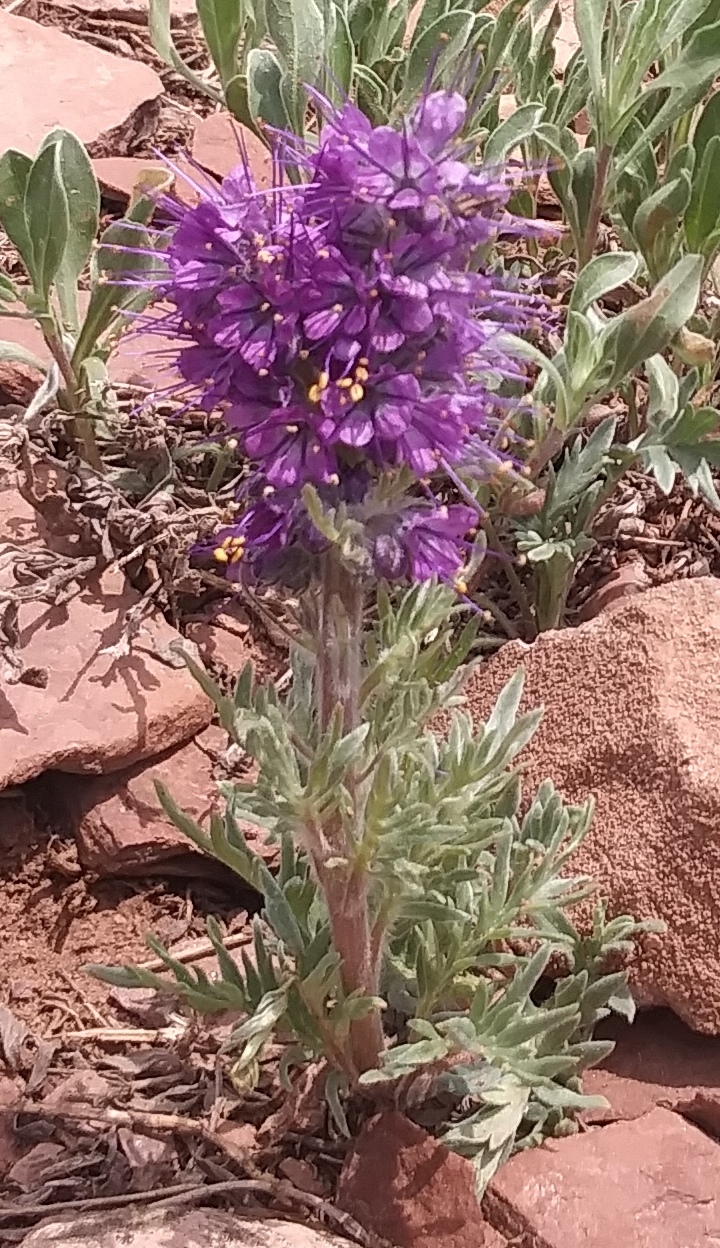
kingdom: Plantae
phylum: Tracheophyta
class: Magnoliopsida
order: Boraginales
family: Hydrophyllaceae
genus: Phacelia
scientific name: Phacelia sericea
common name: Silky phacelia
